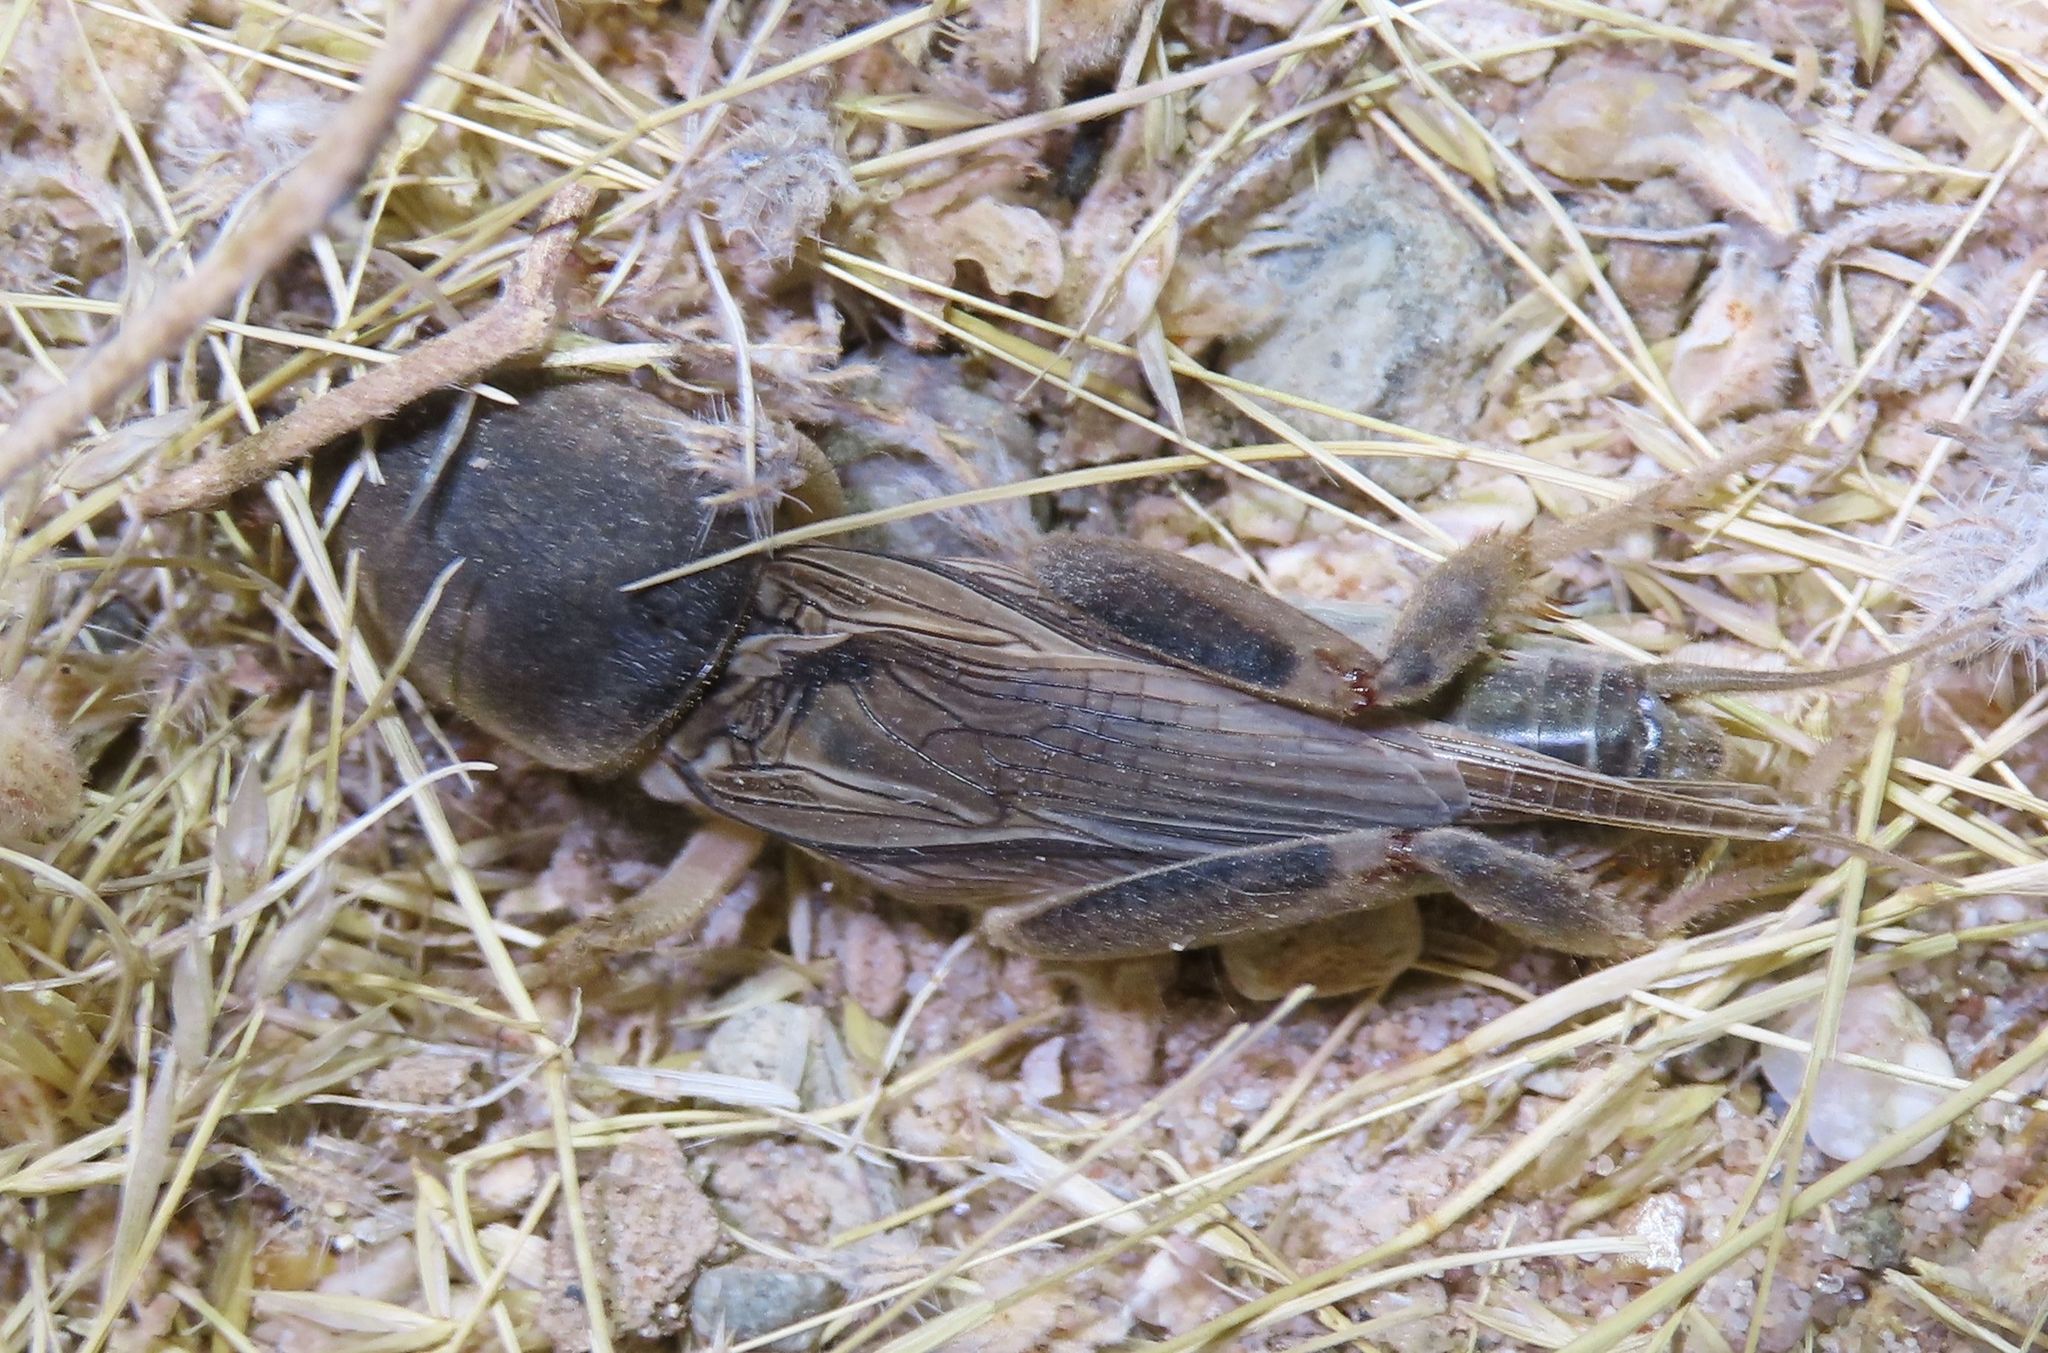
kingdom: Animalia
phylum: Arthropoda
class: Insecta
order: Orthoptera
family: Gryllotalpidae
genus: Neoscapteriscus
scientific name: Neoscapteriscus borellii
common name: Southern mole cricket
